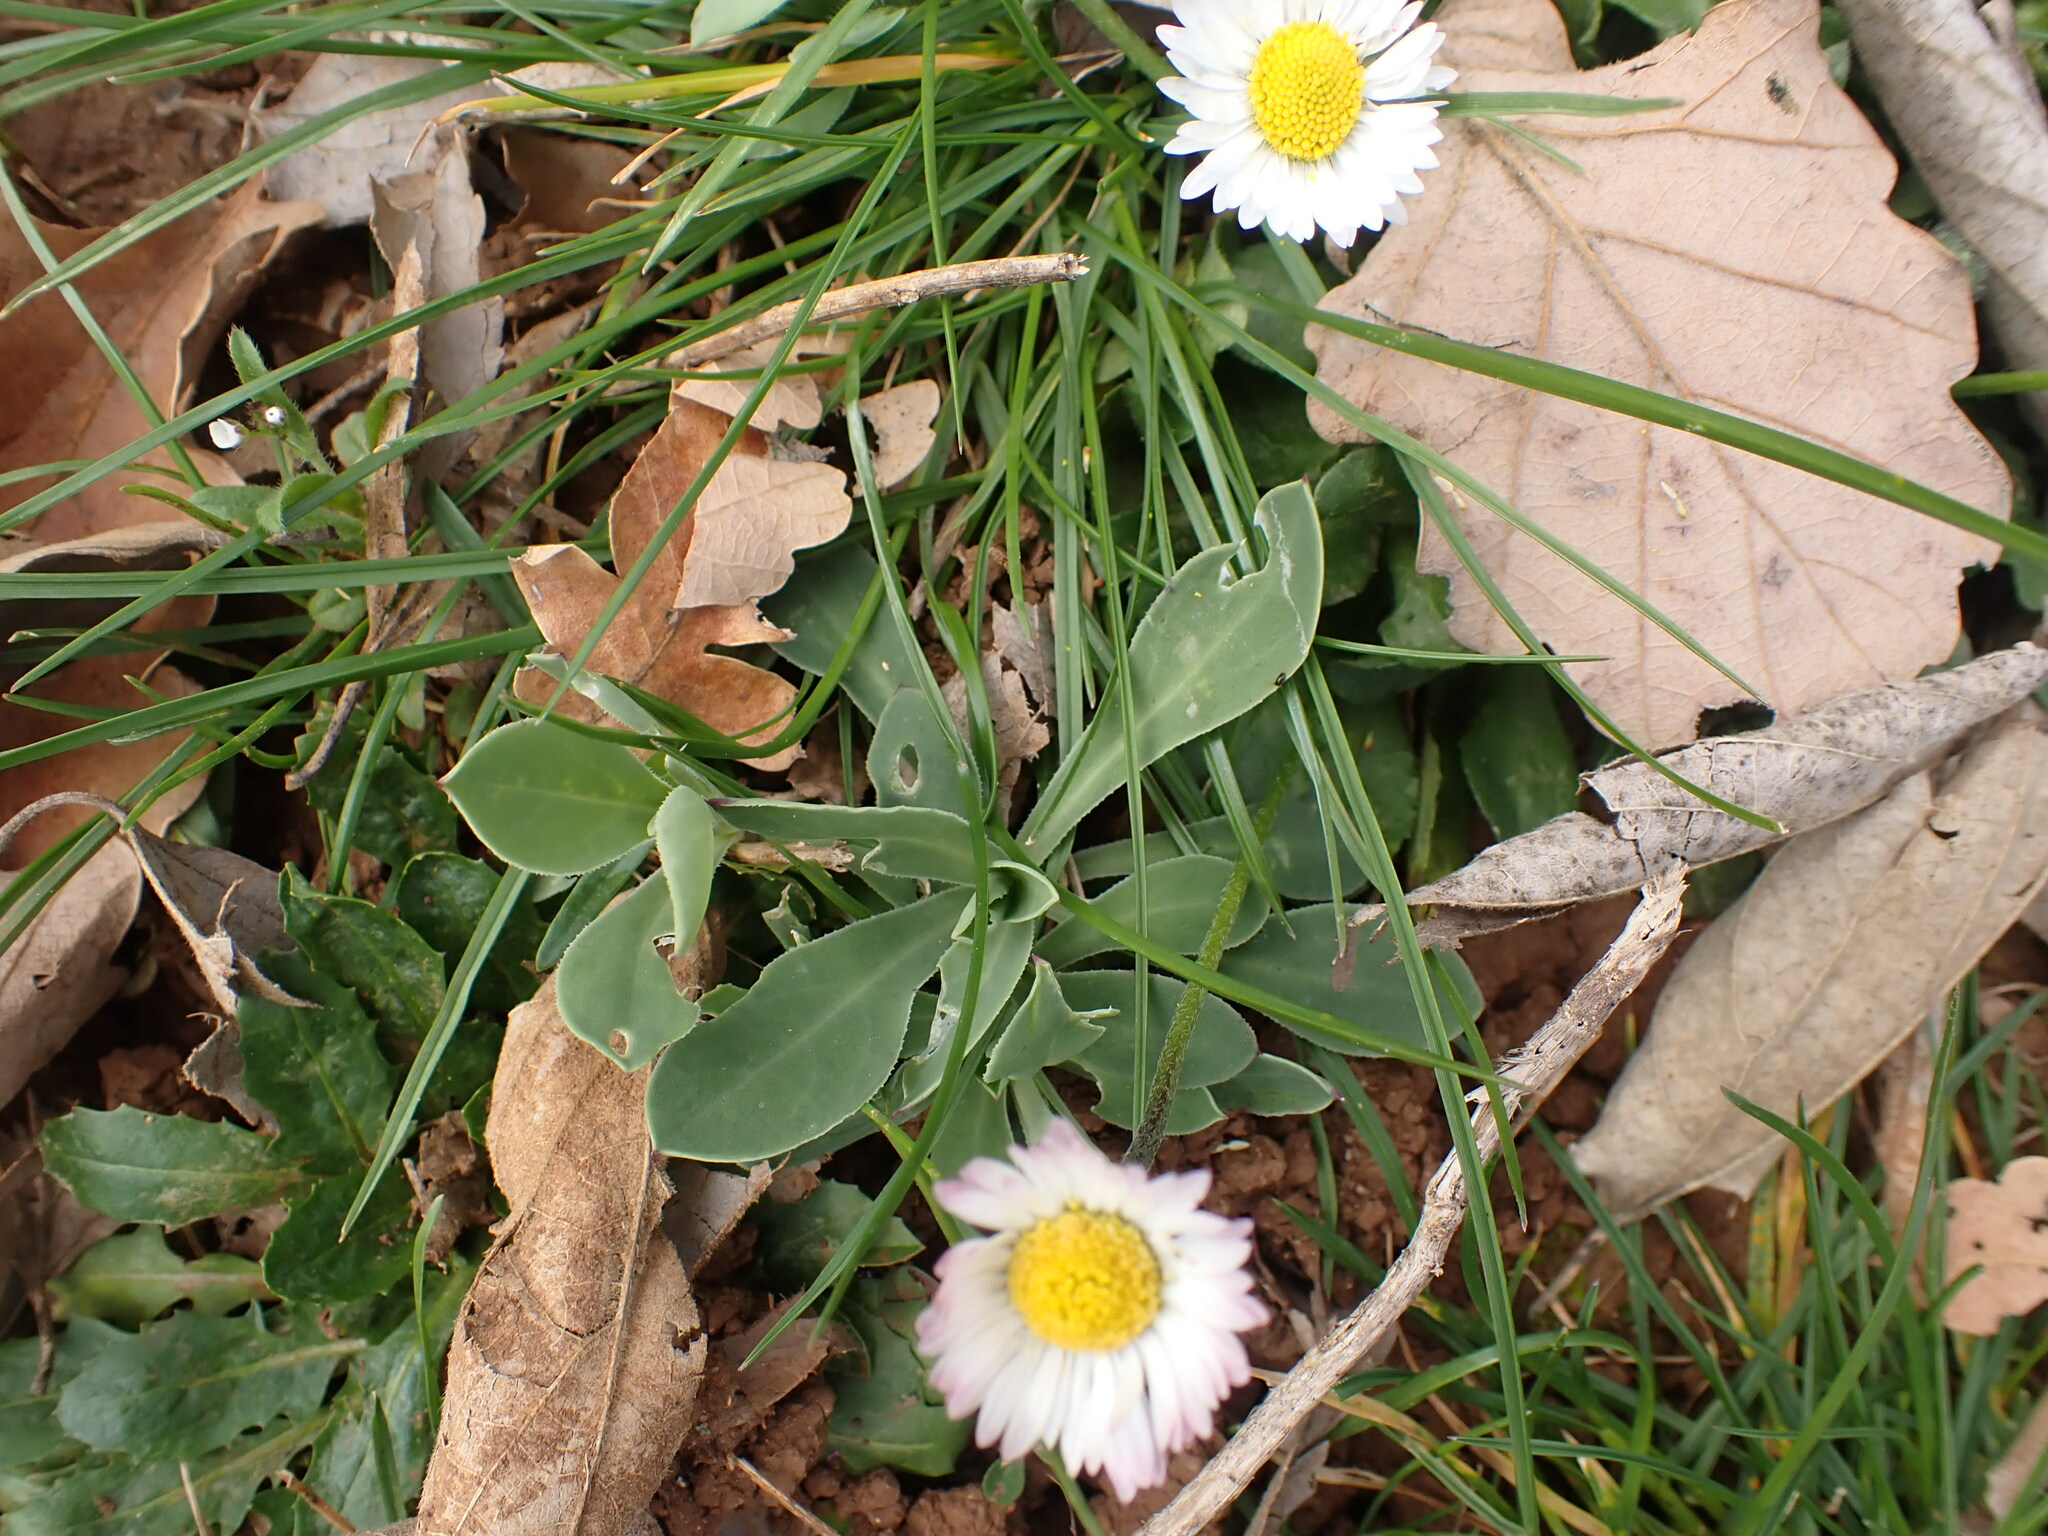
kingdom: Plantae
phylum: Tracheophyta
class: Magnoliopsida
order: Asterales
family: Asteraceae
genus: Bellis
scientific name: Bellis perennis
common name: Lawndaisy
